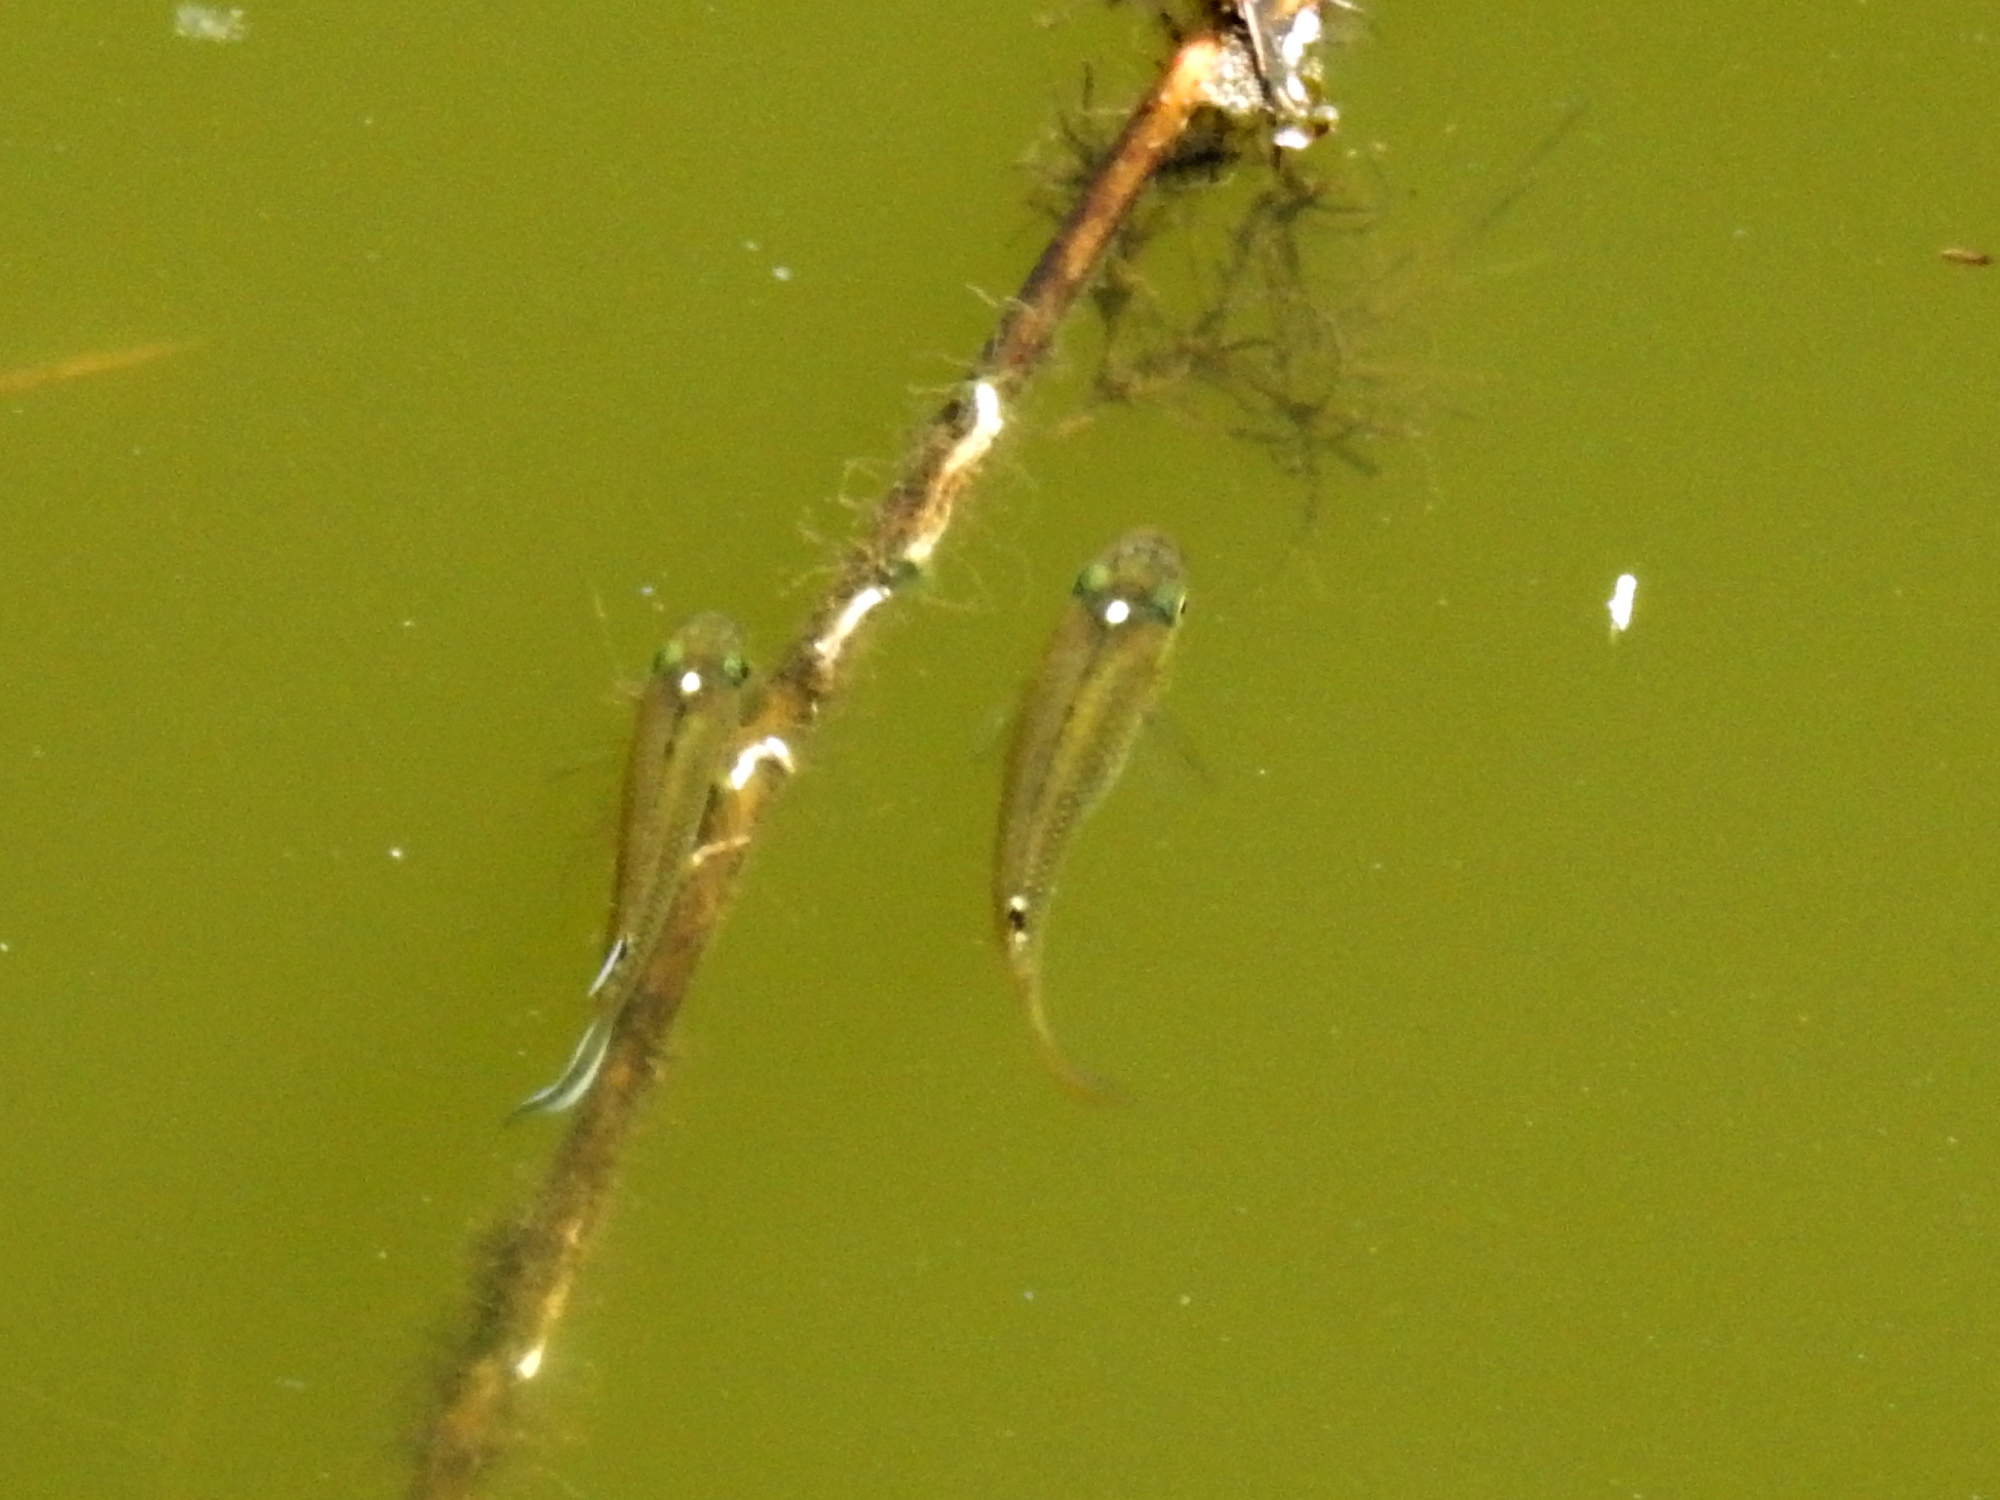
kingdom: Animalia
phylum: Chordata
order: Cyprinodontiformes
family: Aplocheilidae
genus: Aplocheilus
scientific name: Aplocheilus panchax
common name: Blue panchax
